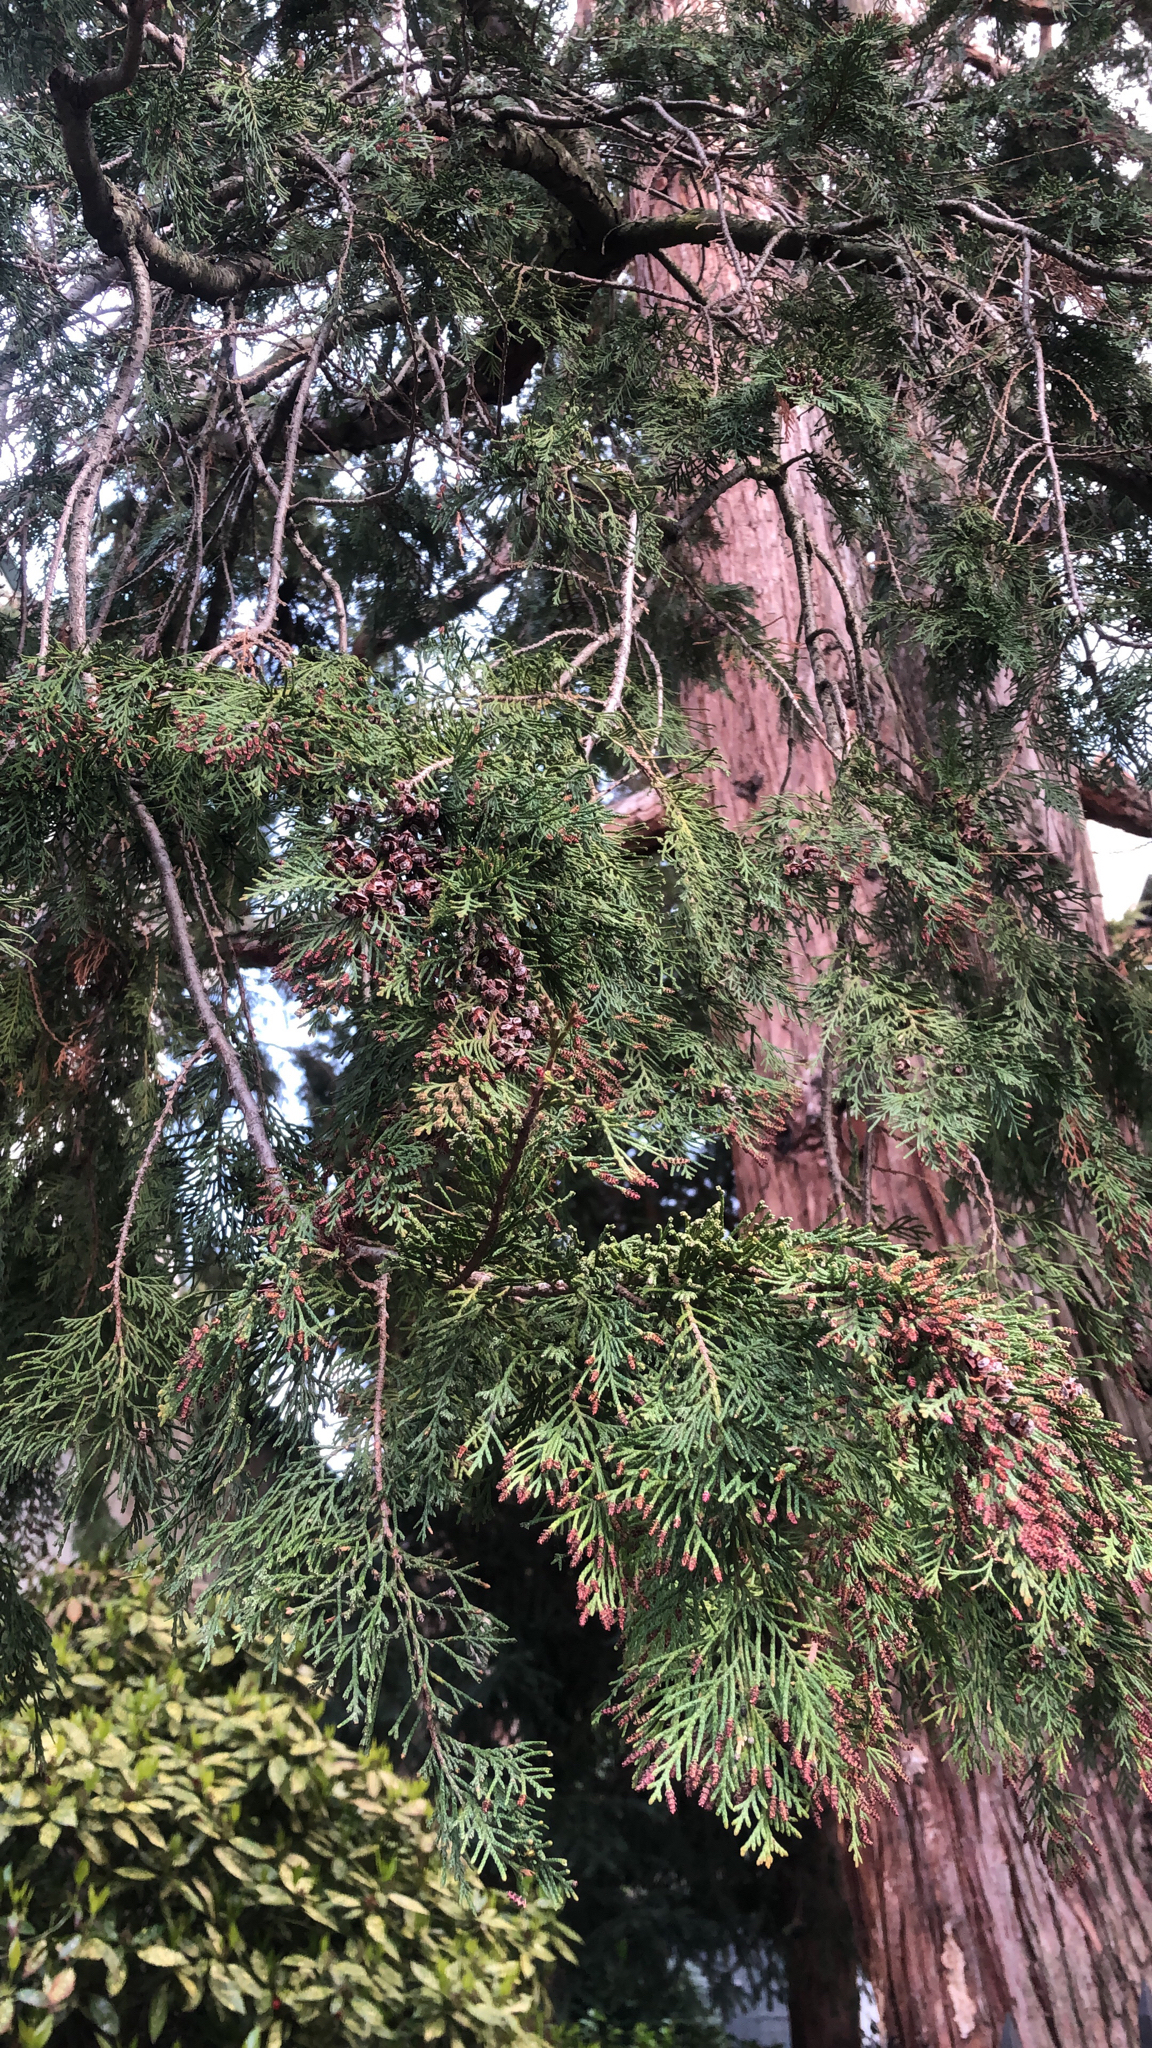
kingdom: Plantae
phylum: Tracheophyta
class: Pinopsida
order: Pinales
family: Cupressaceae
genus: Chamaecyparis
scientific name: Chamaecyparis lawsoniana
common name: Lawson's cypress
